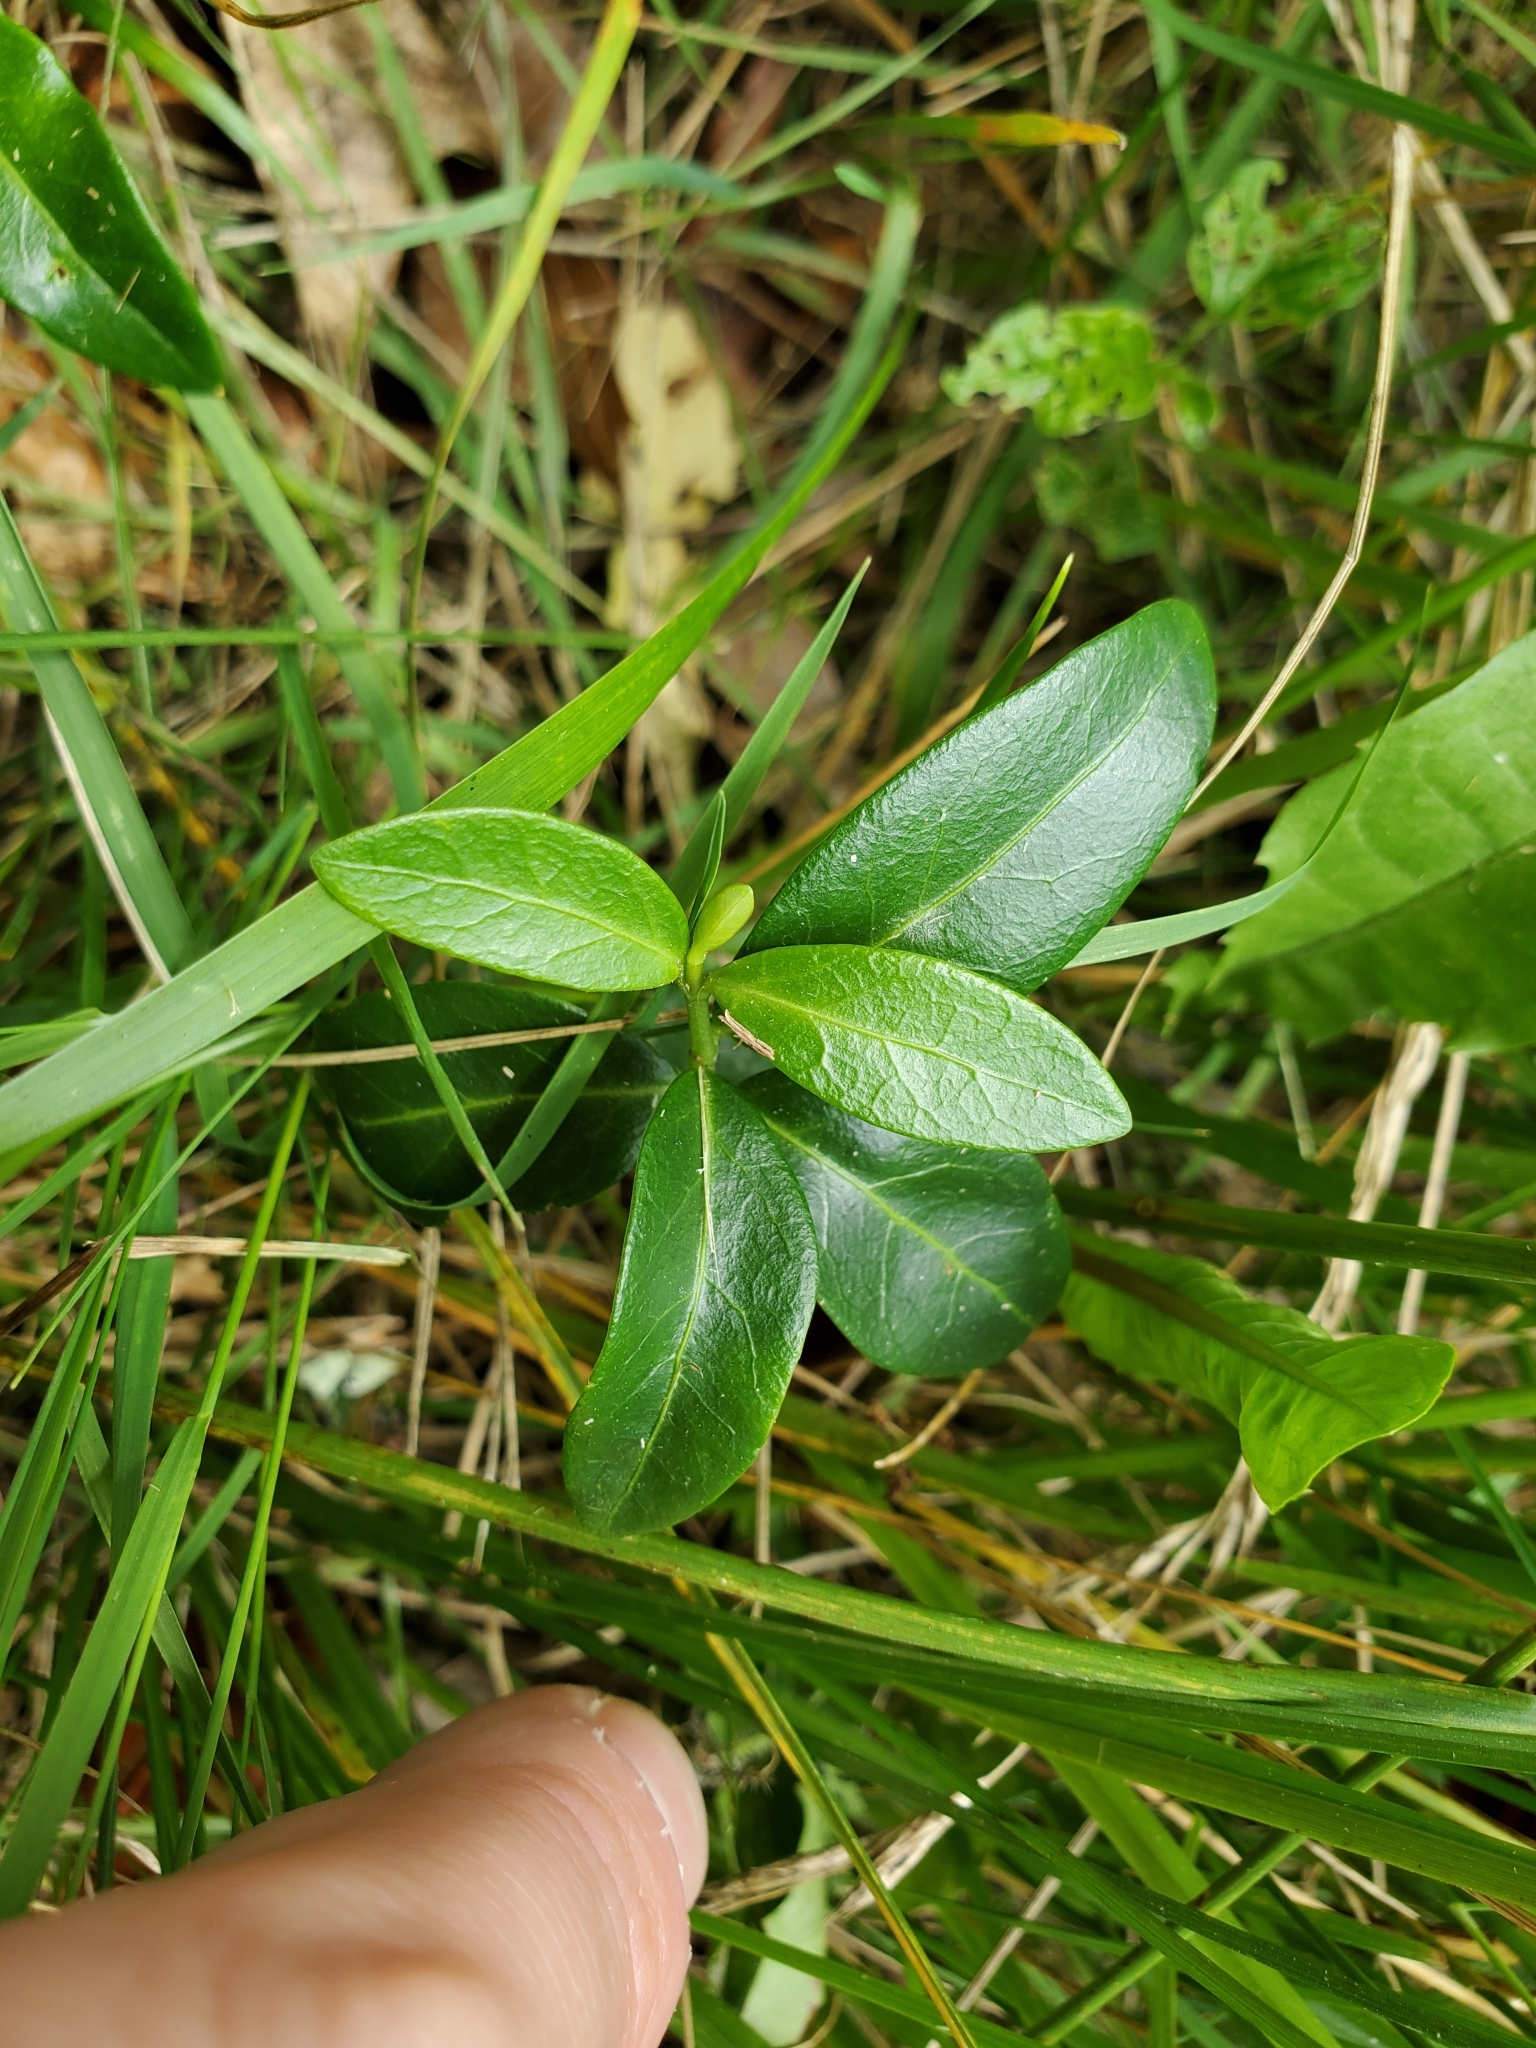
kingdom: Plantae
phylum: Tracheophyta
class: Magnoliopsida
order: Gentianales
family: Apocynaceae
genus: Vinca
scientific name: Vinca minor
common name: Lesser periwinkle
